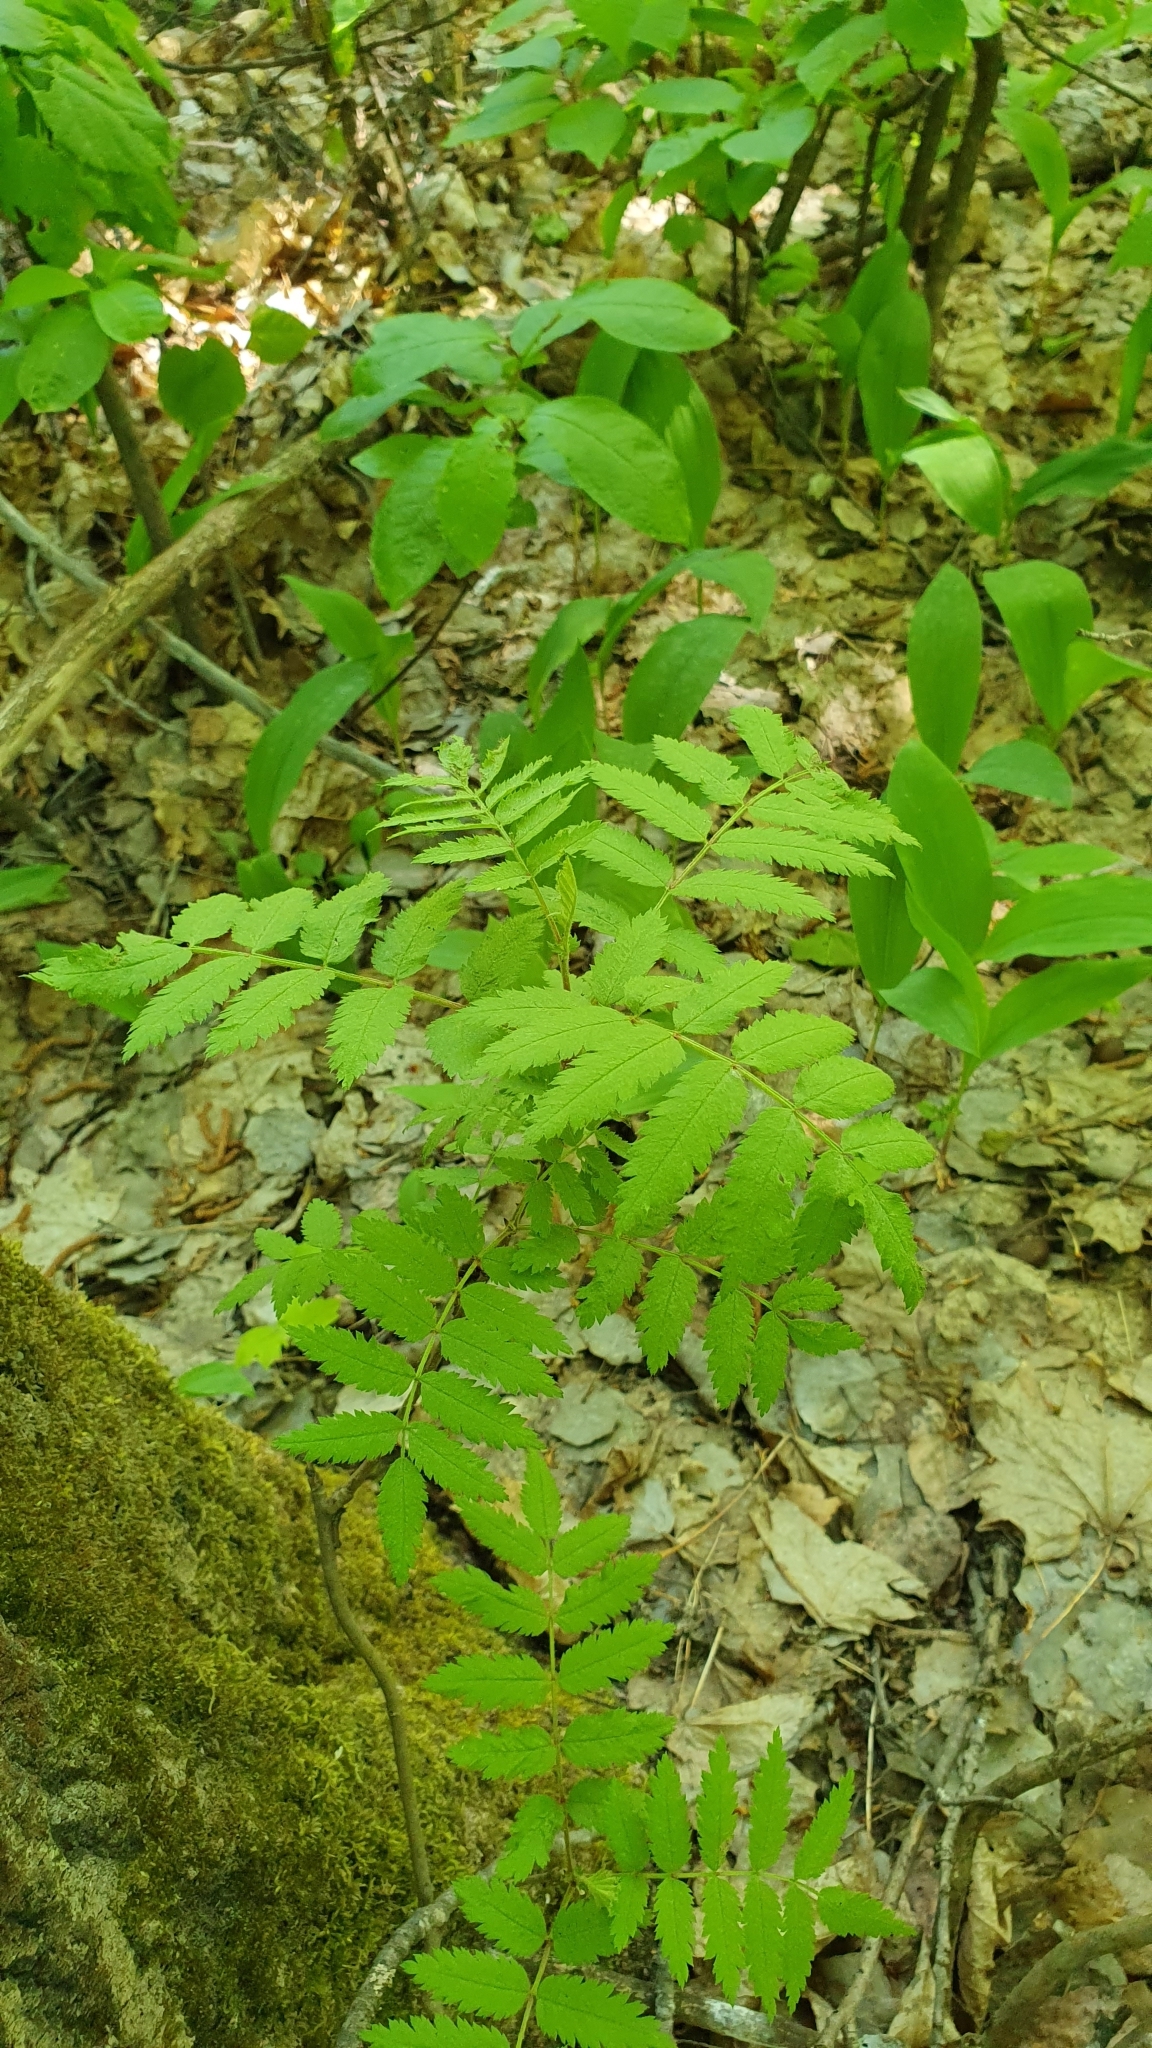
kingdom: Plantae
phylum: Tracheophyta
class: Magnoliopsida
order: Rosales
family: Rosaceae
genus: Sorbus
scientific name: Sorbus aucuparia
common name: Rowan
